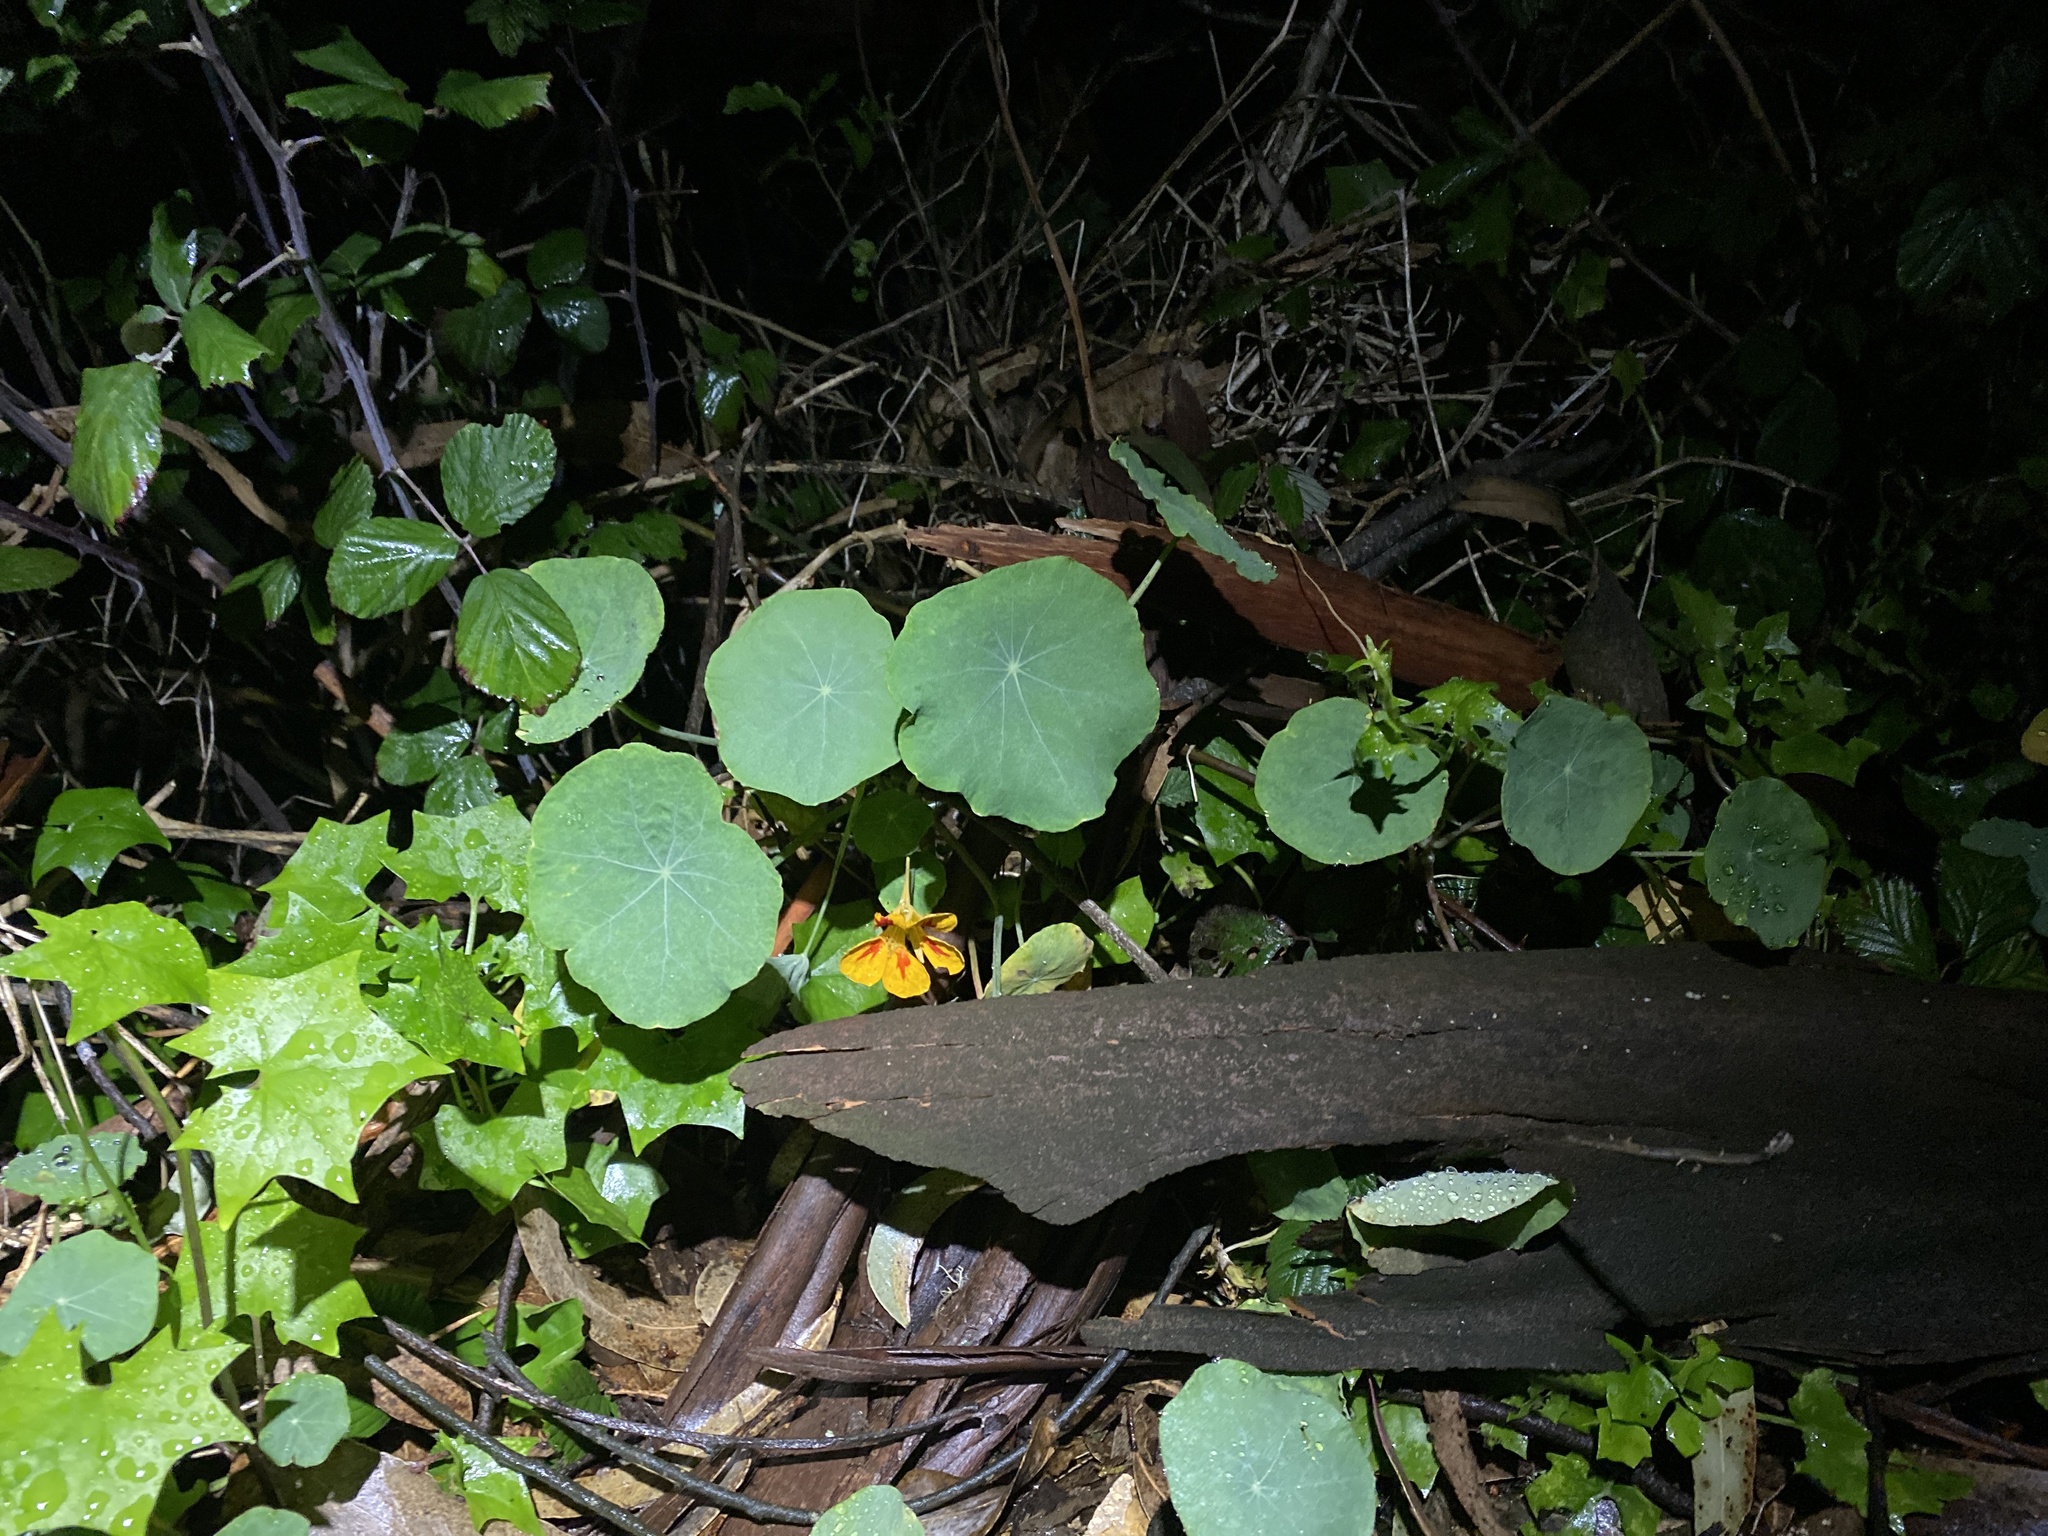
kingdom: Plantae
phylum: Tracheophyta
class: Magnoliopsida
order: Brassicales
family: Tropaeolaceae
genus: Tropaeolum
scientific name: Tropaeolum majus
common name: Nasturtium
